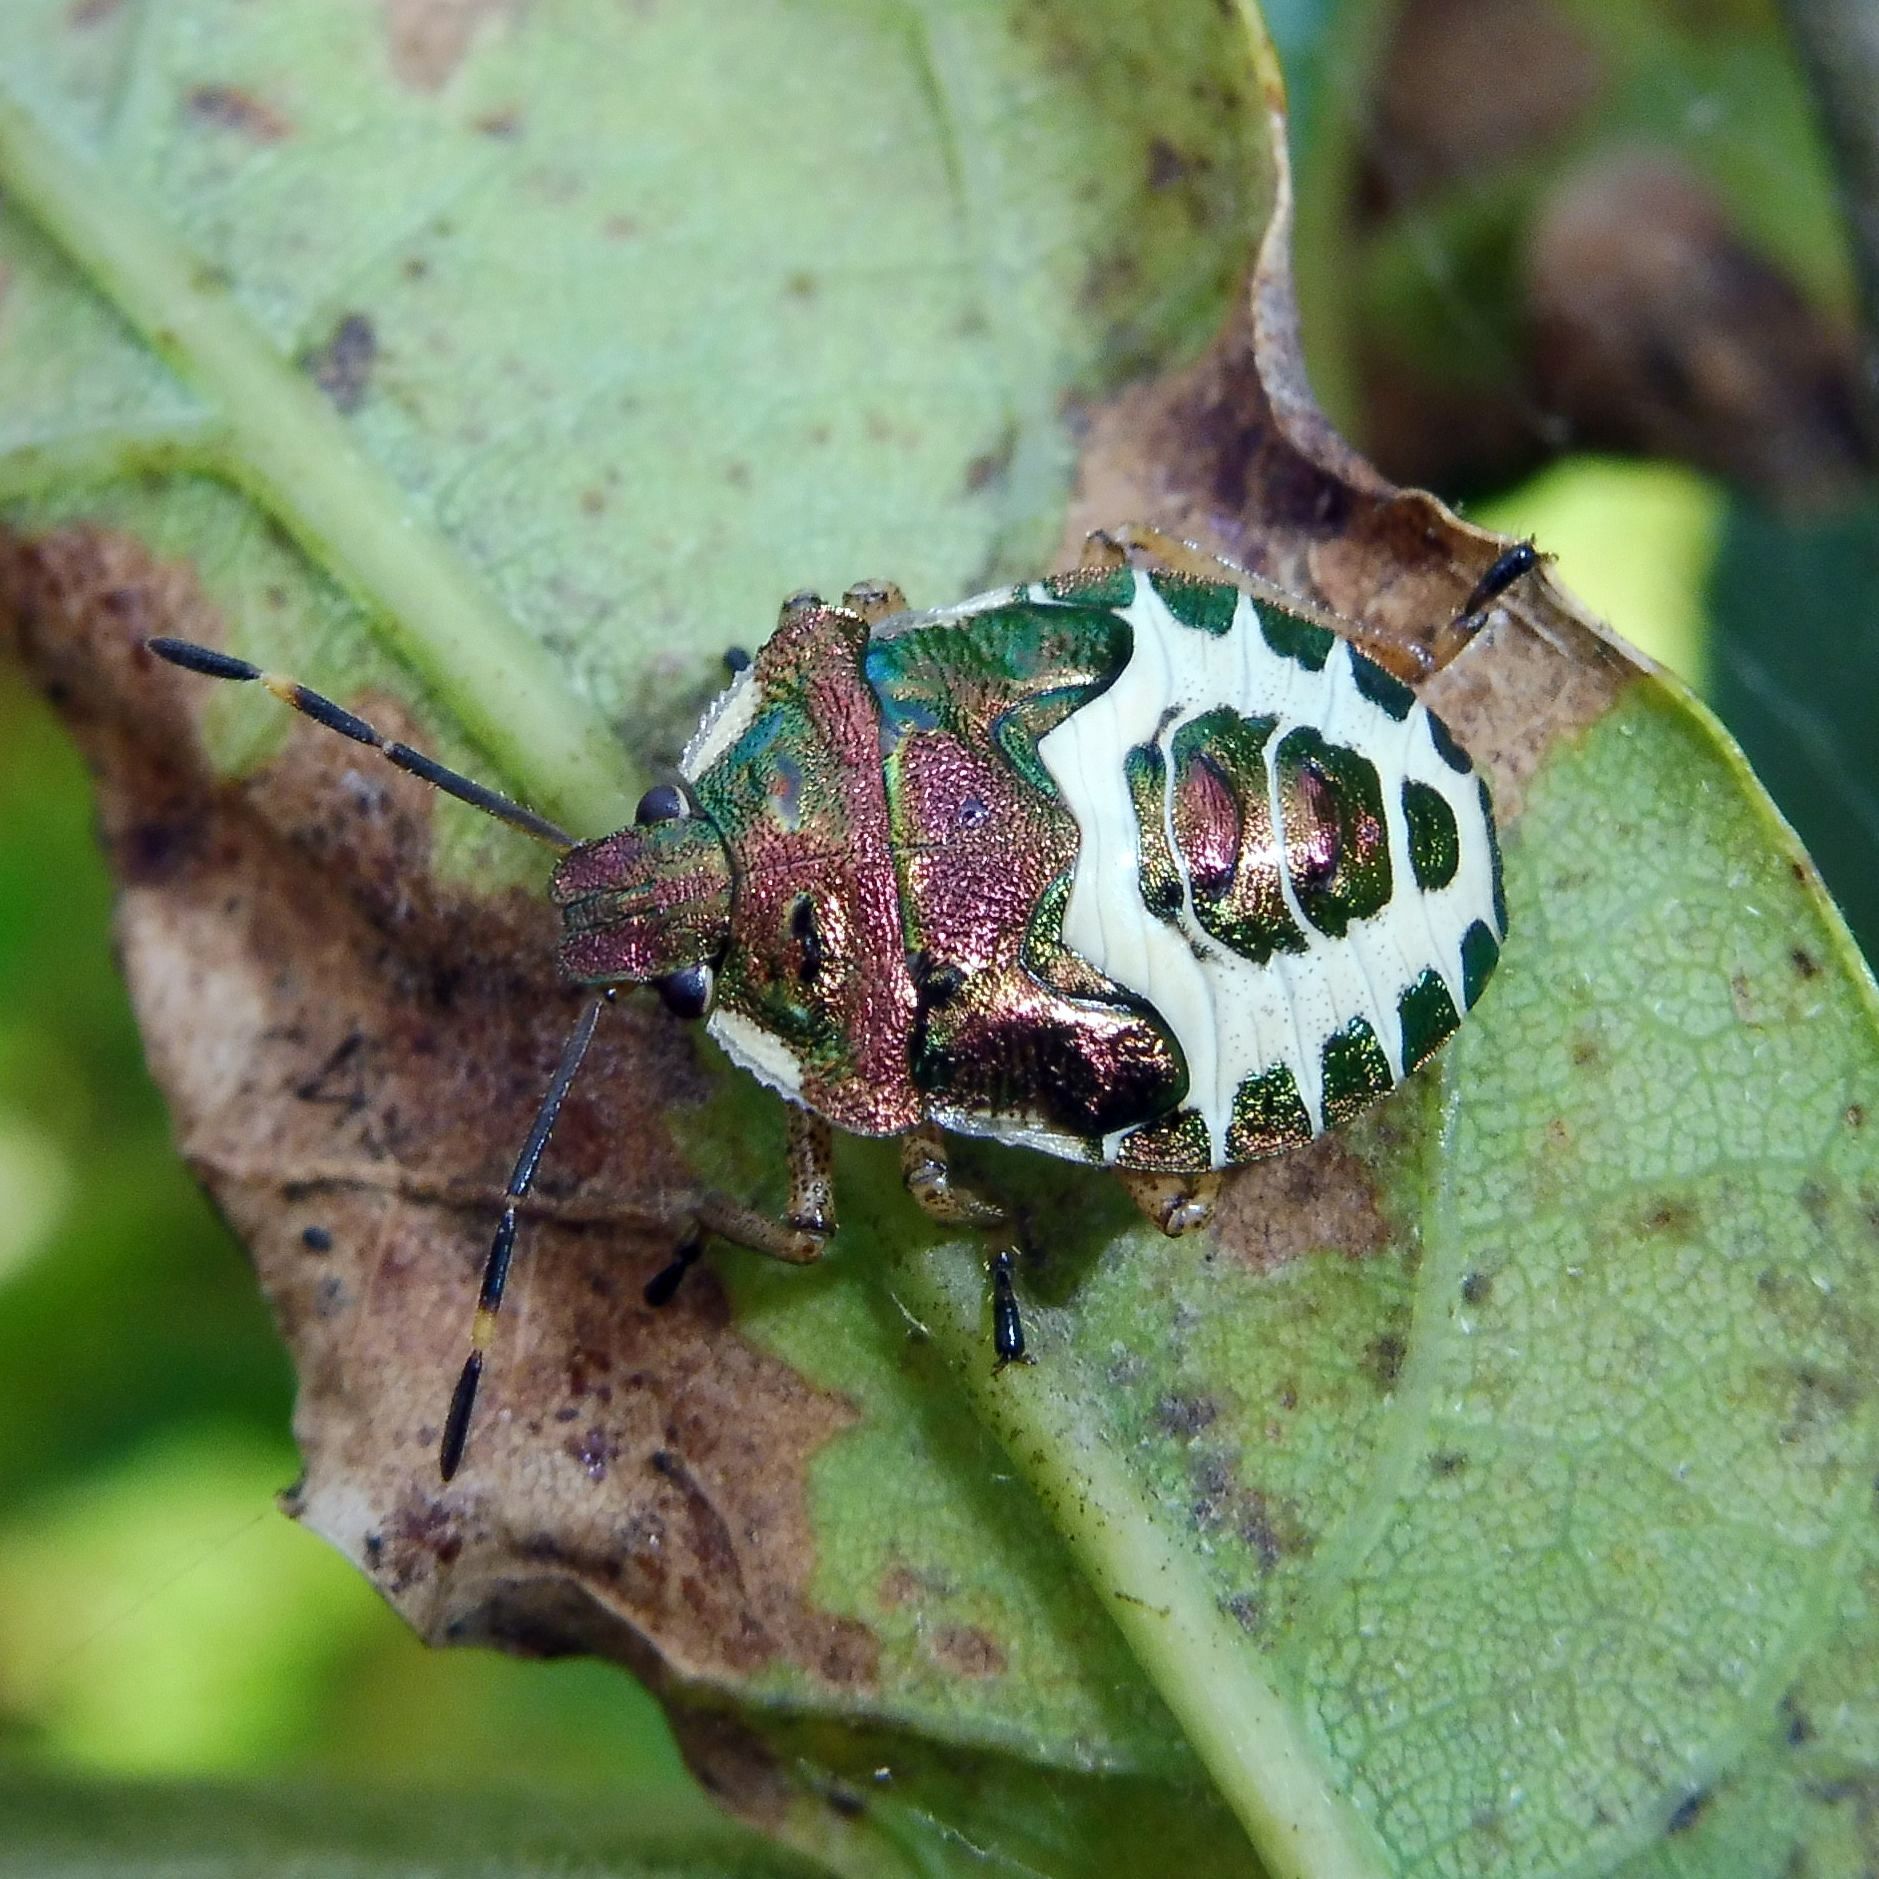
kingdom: Animalia
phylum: Arthropoda
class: Insecta
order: Hemiptera
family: Pentatomidae
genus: Troilus
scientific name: Troilus luridus
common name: Bronze shieldbug
